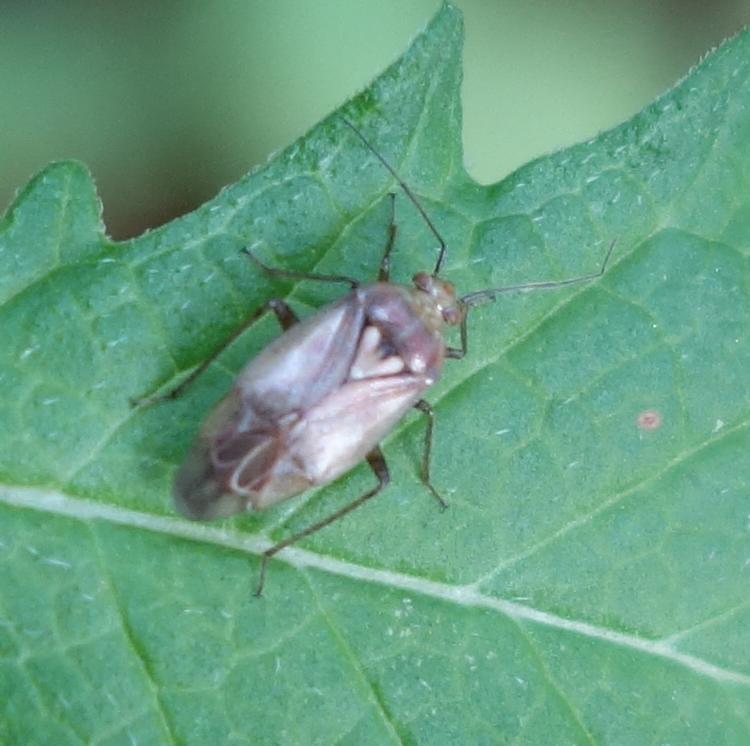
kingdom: Animalia
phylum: Arthropoda
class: Insecta
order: Hemiptera
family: Miridae
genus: Lygus
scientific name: Lygus rugulipennis
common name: European tarnished plant bug
